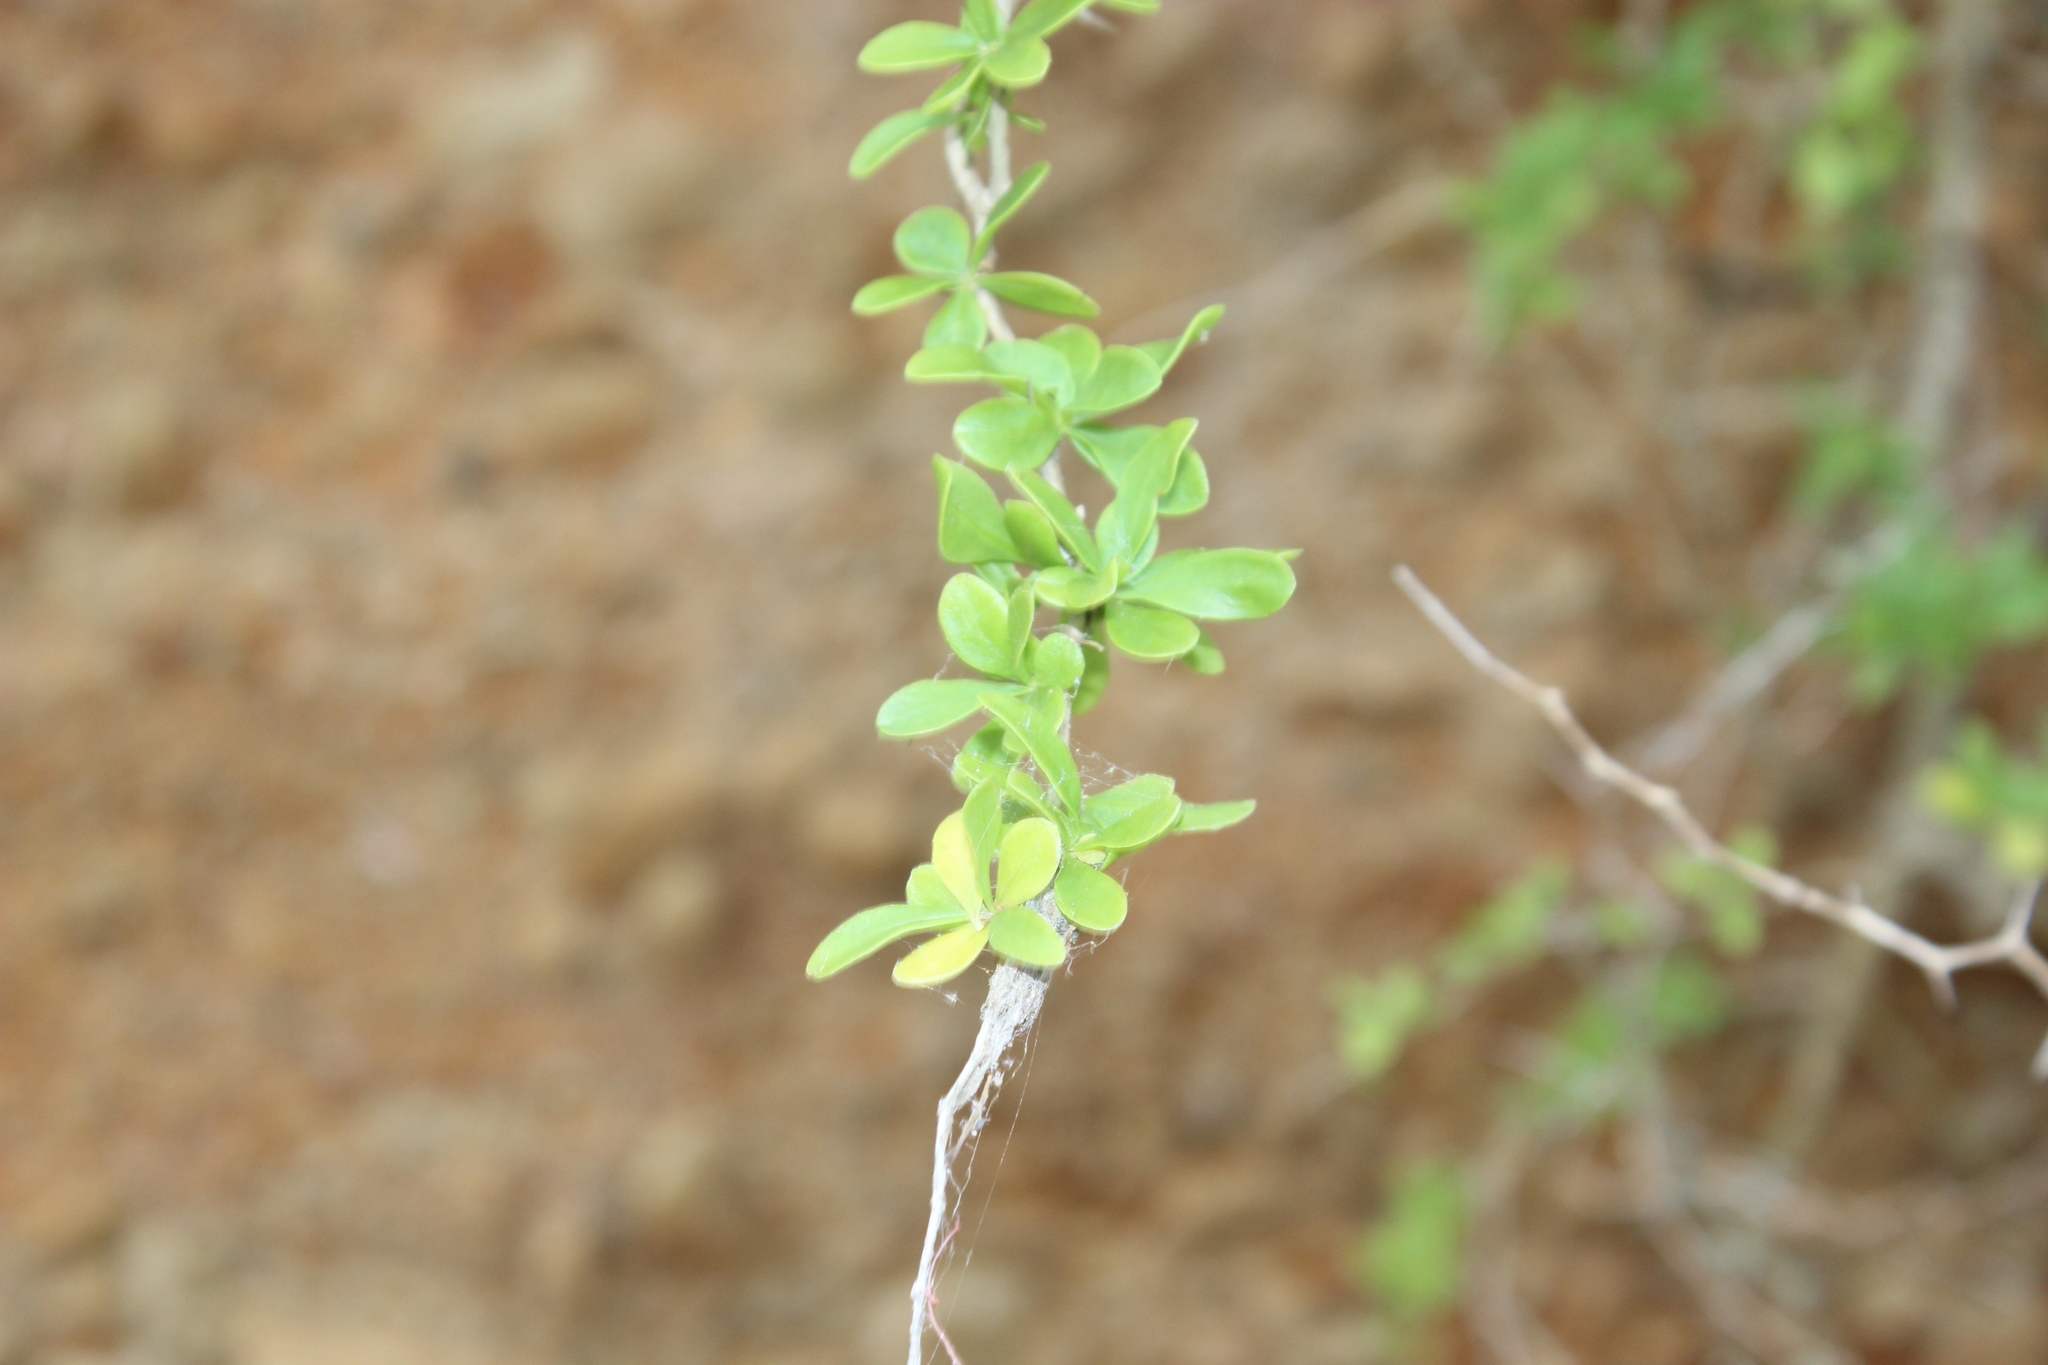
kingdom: Plantae
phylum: Tracheophyta
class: Magnoliopsida
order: Solanales
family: Solanaceae
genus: Lycium
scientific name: Lycium ferocissimum
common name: African boxthorn
